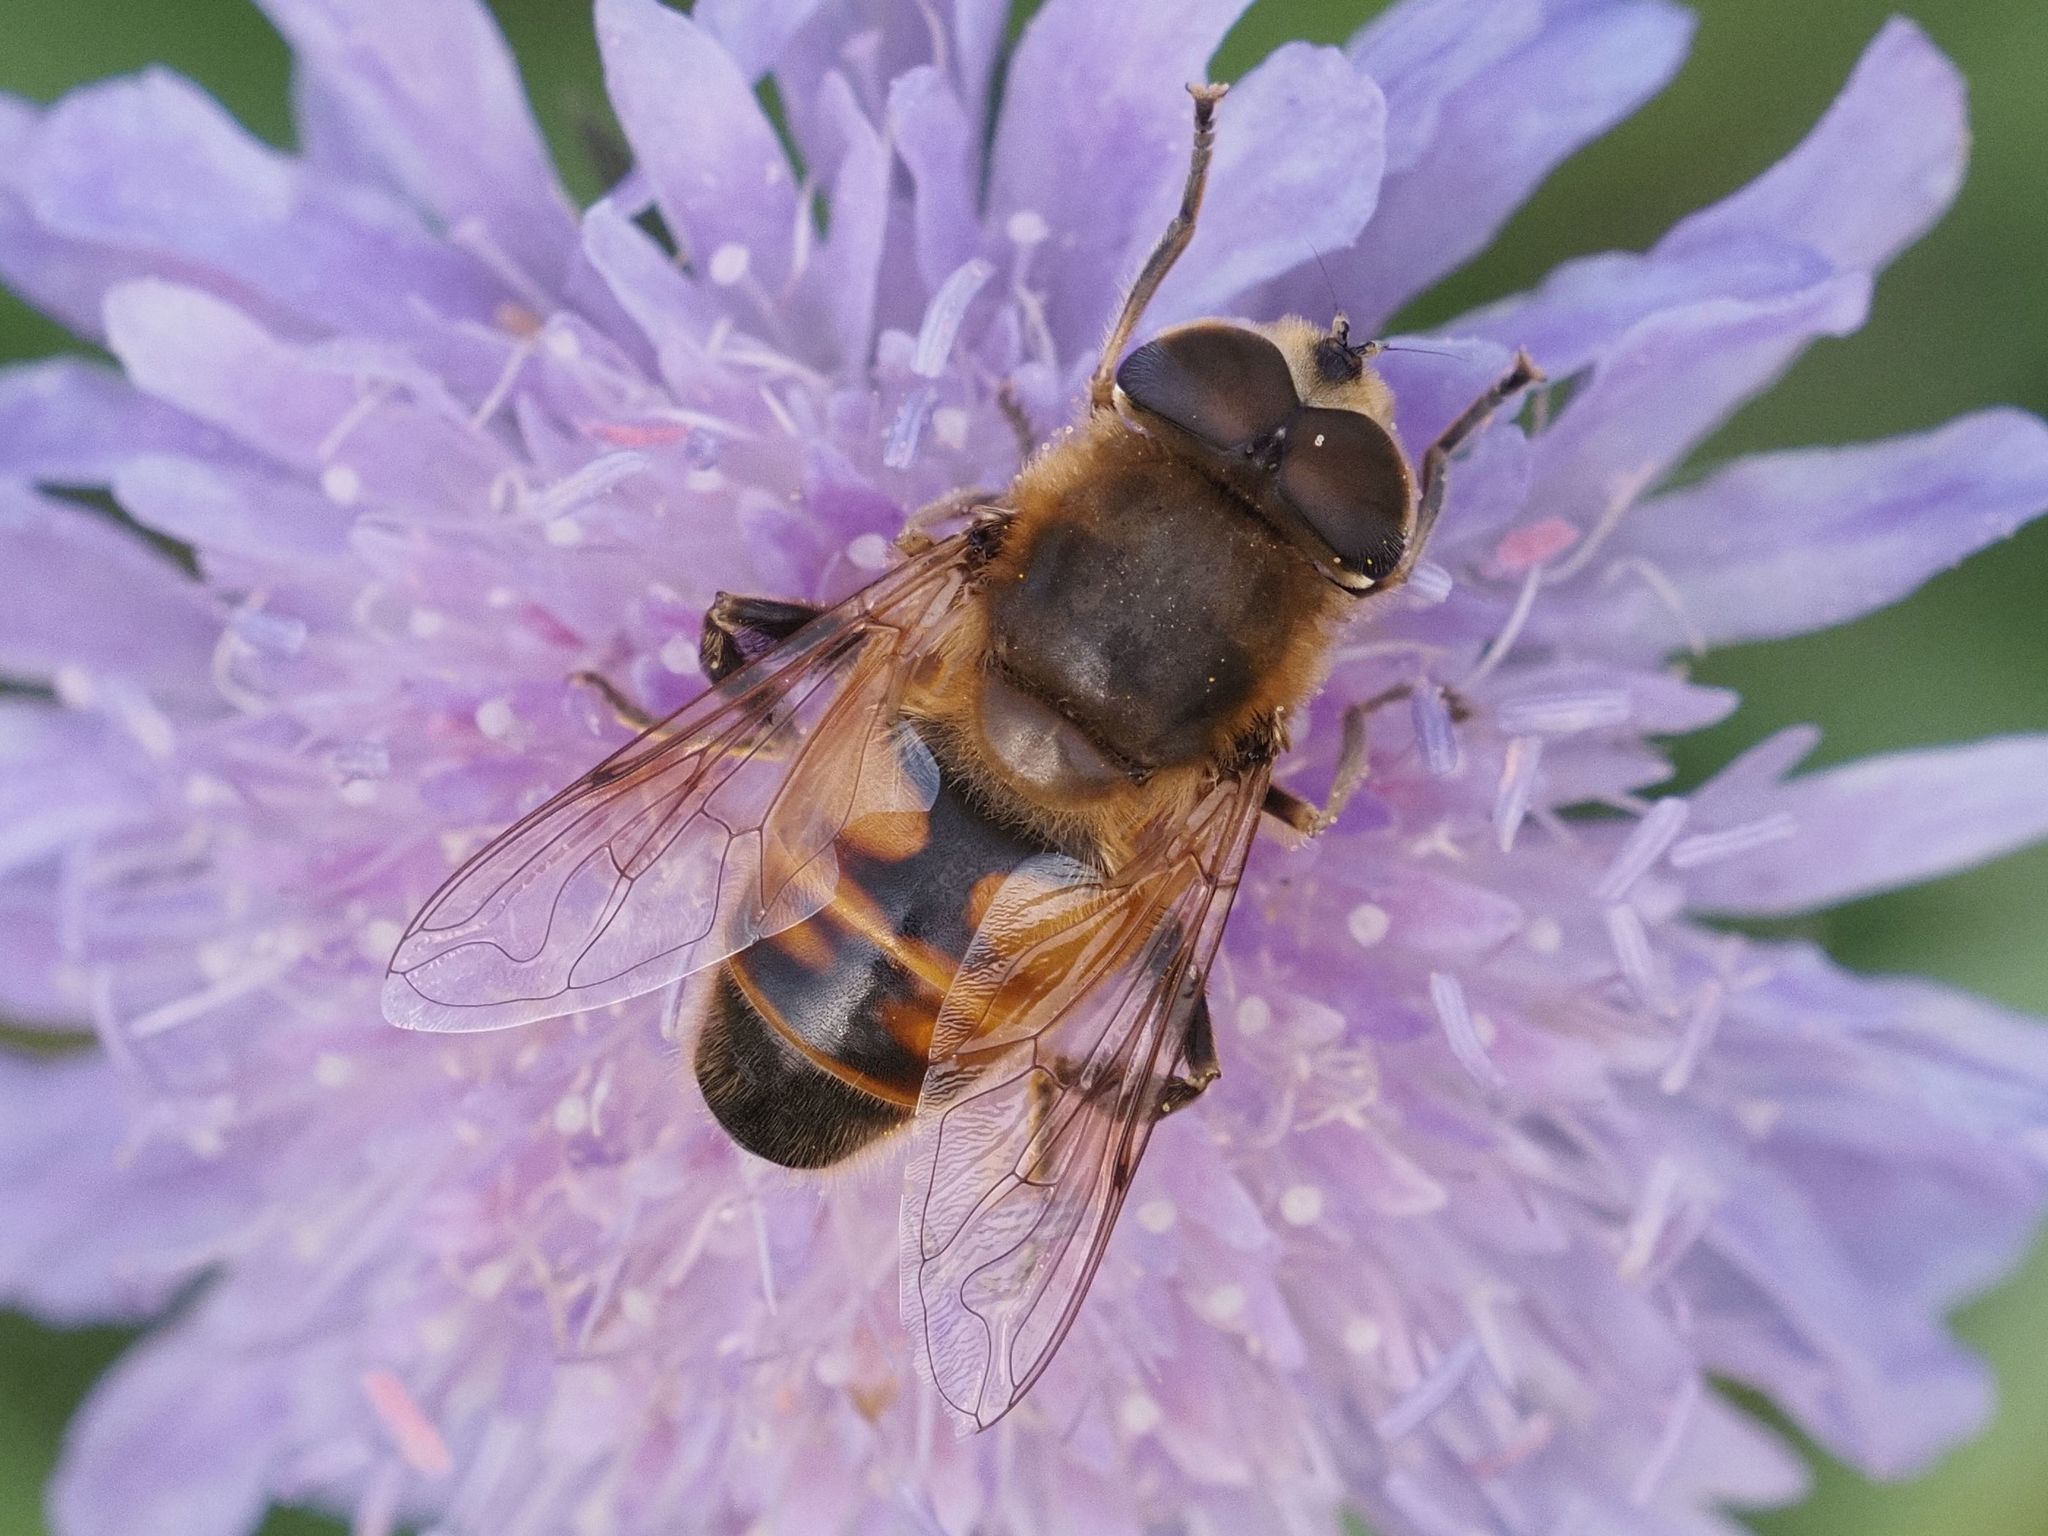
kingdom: Animalia
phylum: Arthropoda
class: Insecta
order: Diptera
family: Syrphidae
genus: Eristalis
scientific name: Eristalis tenax
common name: Drone fly
